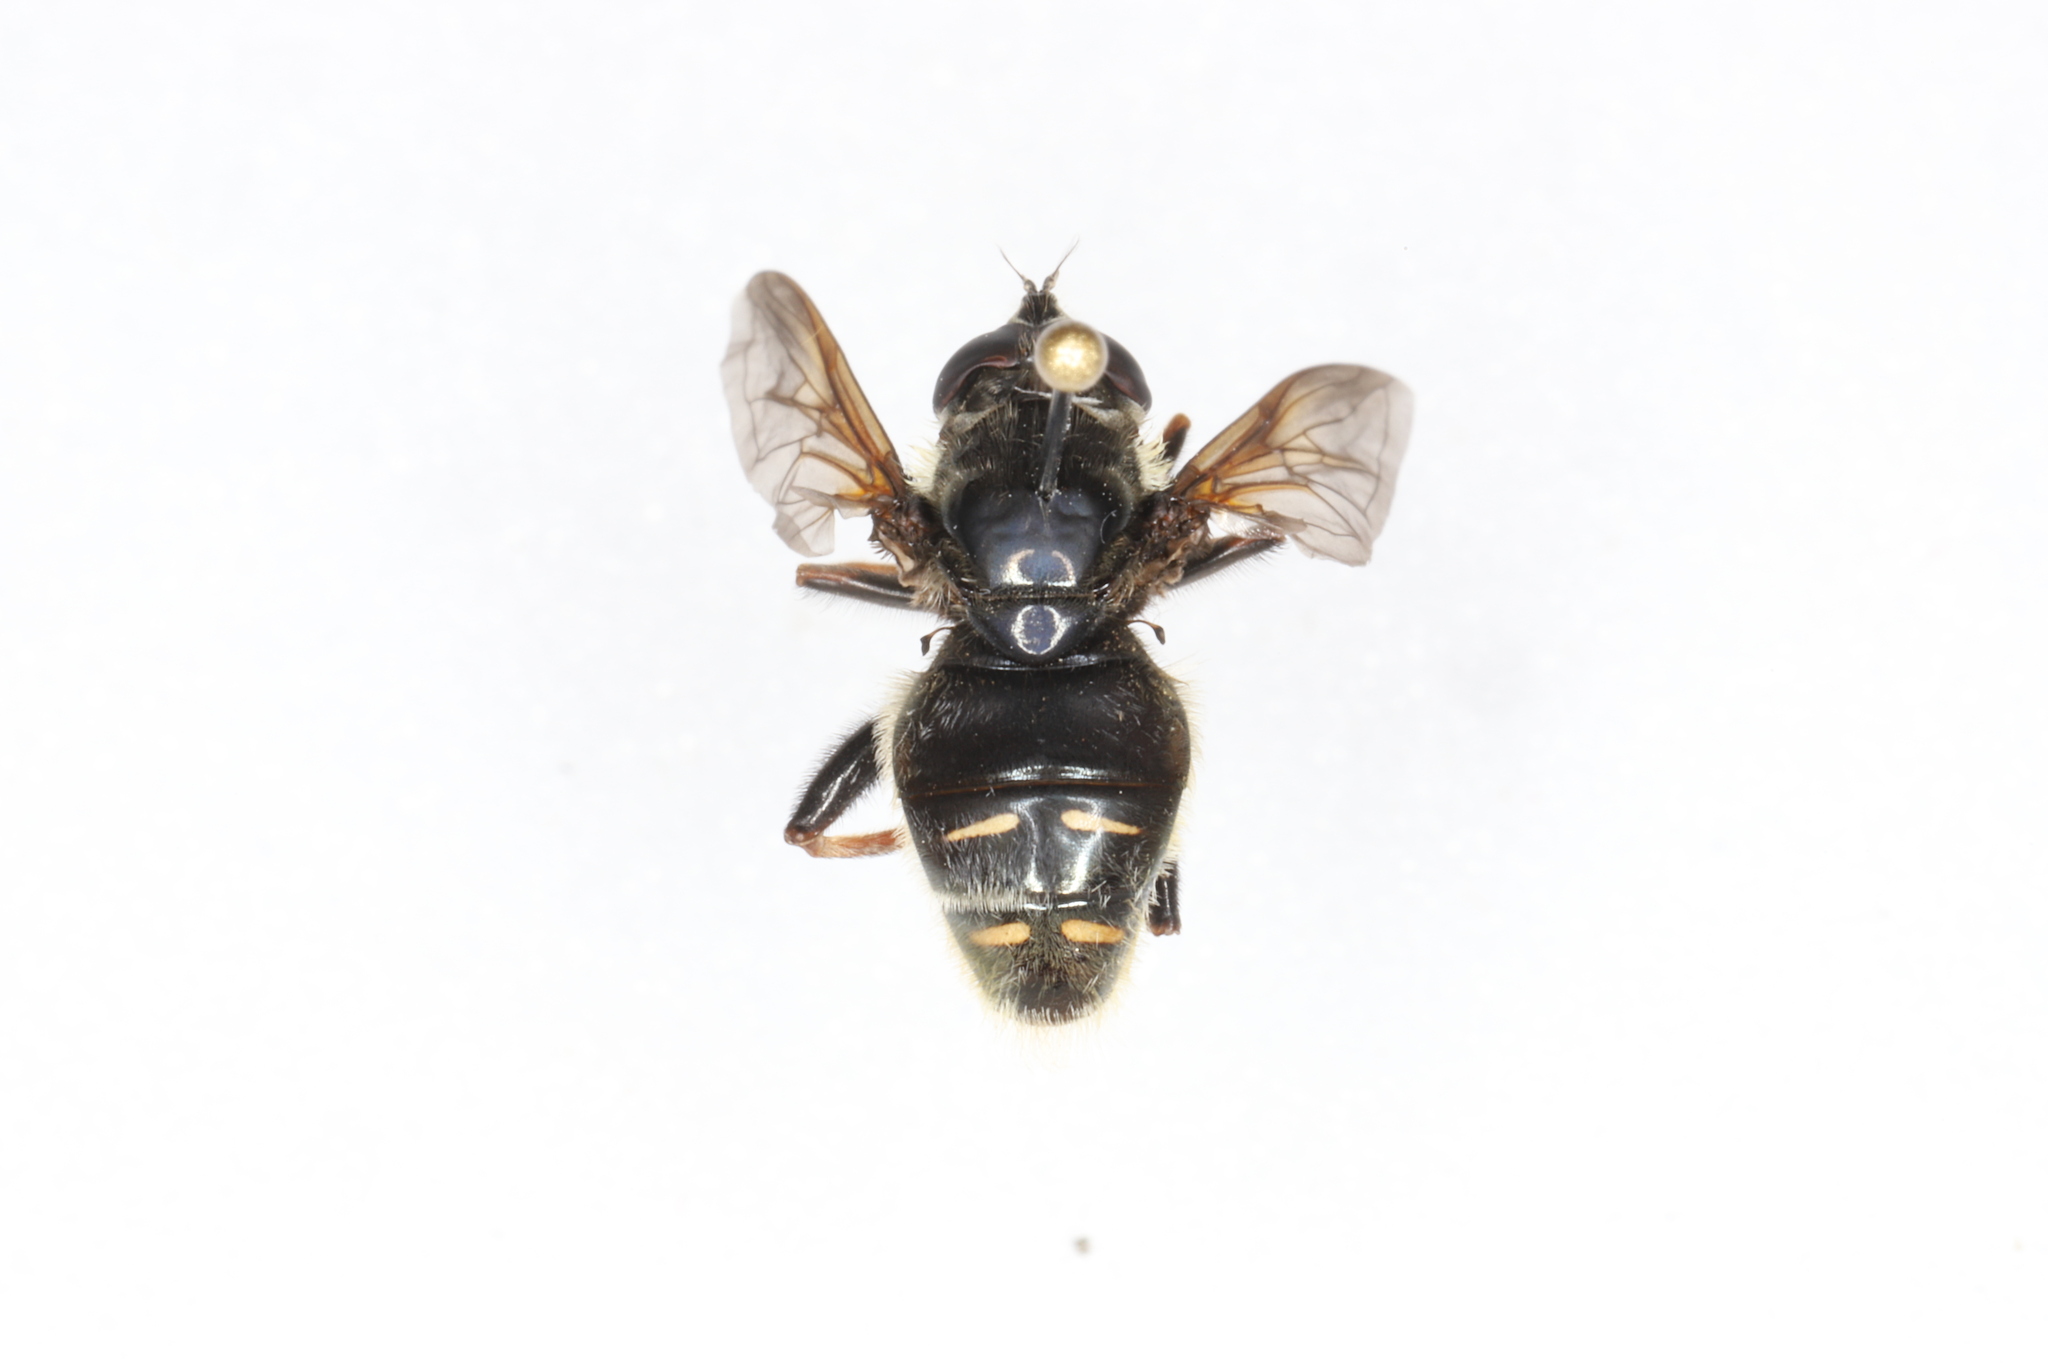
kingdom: Animalia
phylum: Arthropoda
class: Insecta
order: Diptera
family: Syrphidae
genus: Sericomyia
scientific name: Sericomyia militaris
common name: Narrow-banded pond fly
